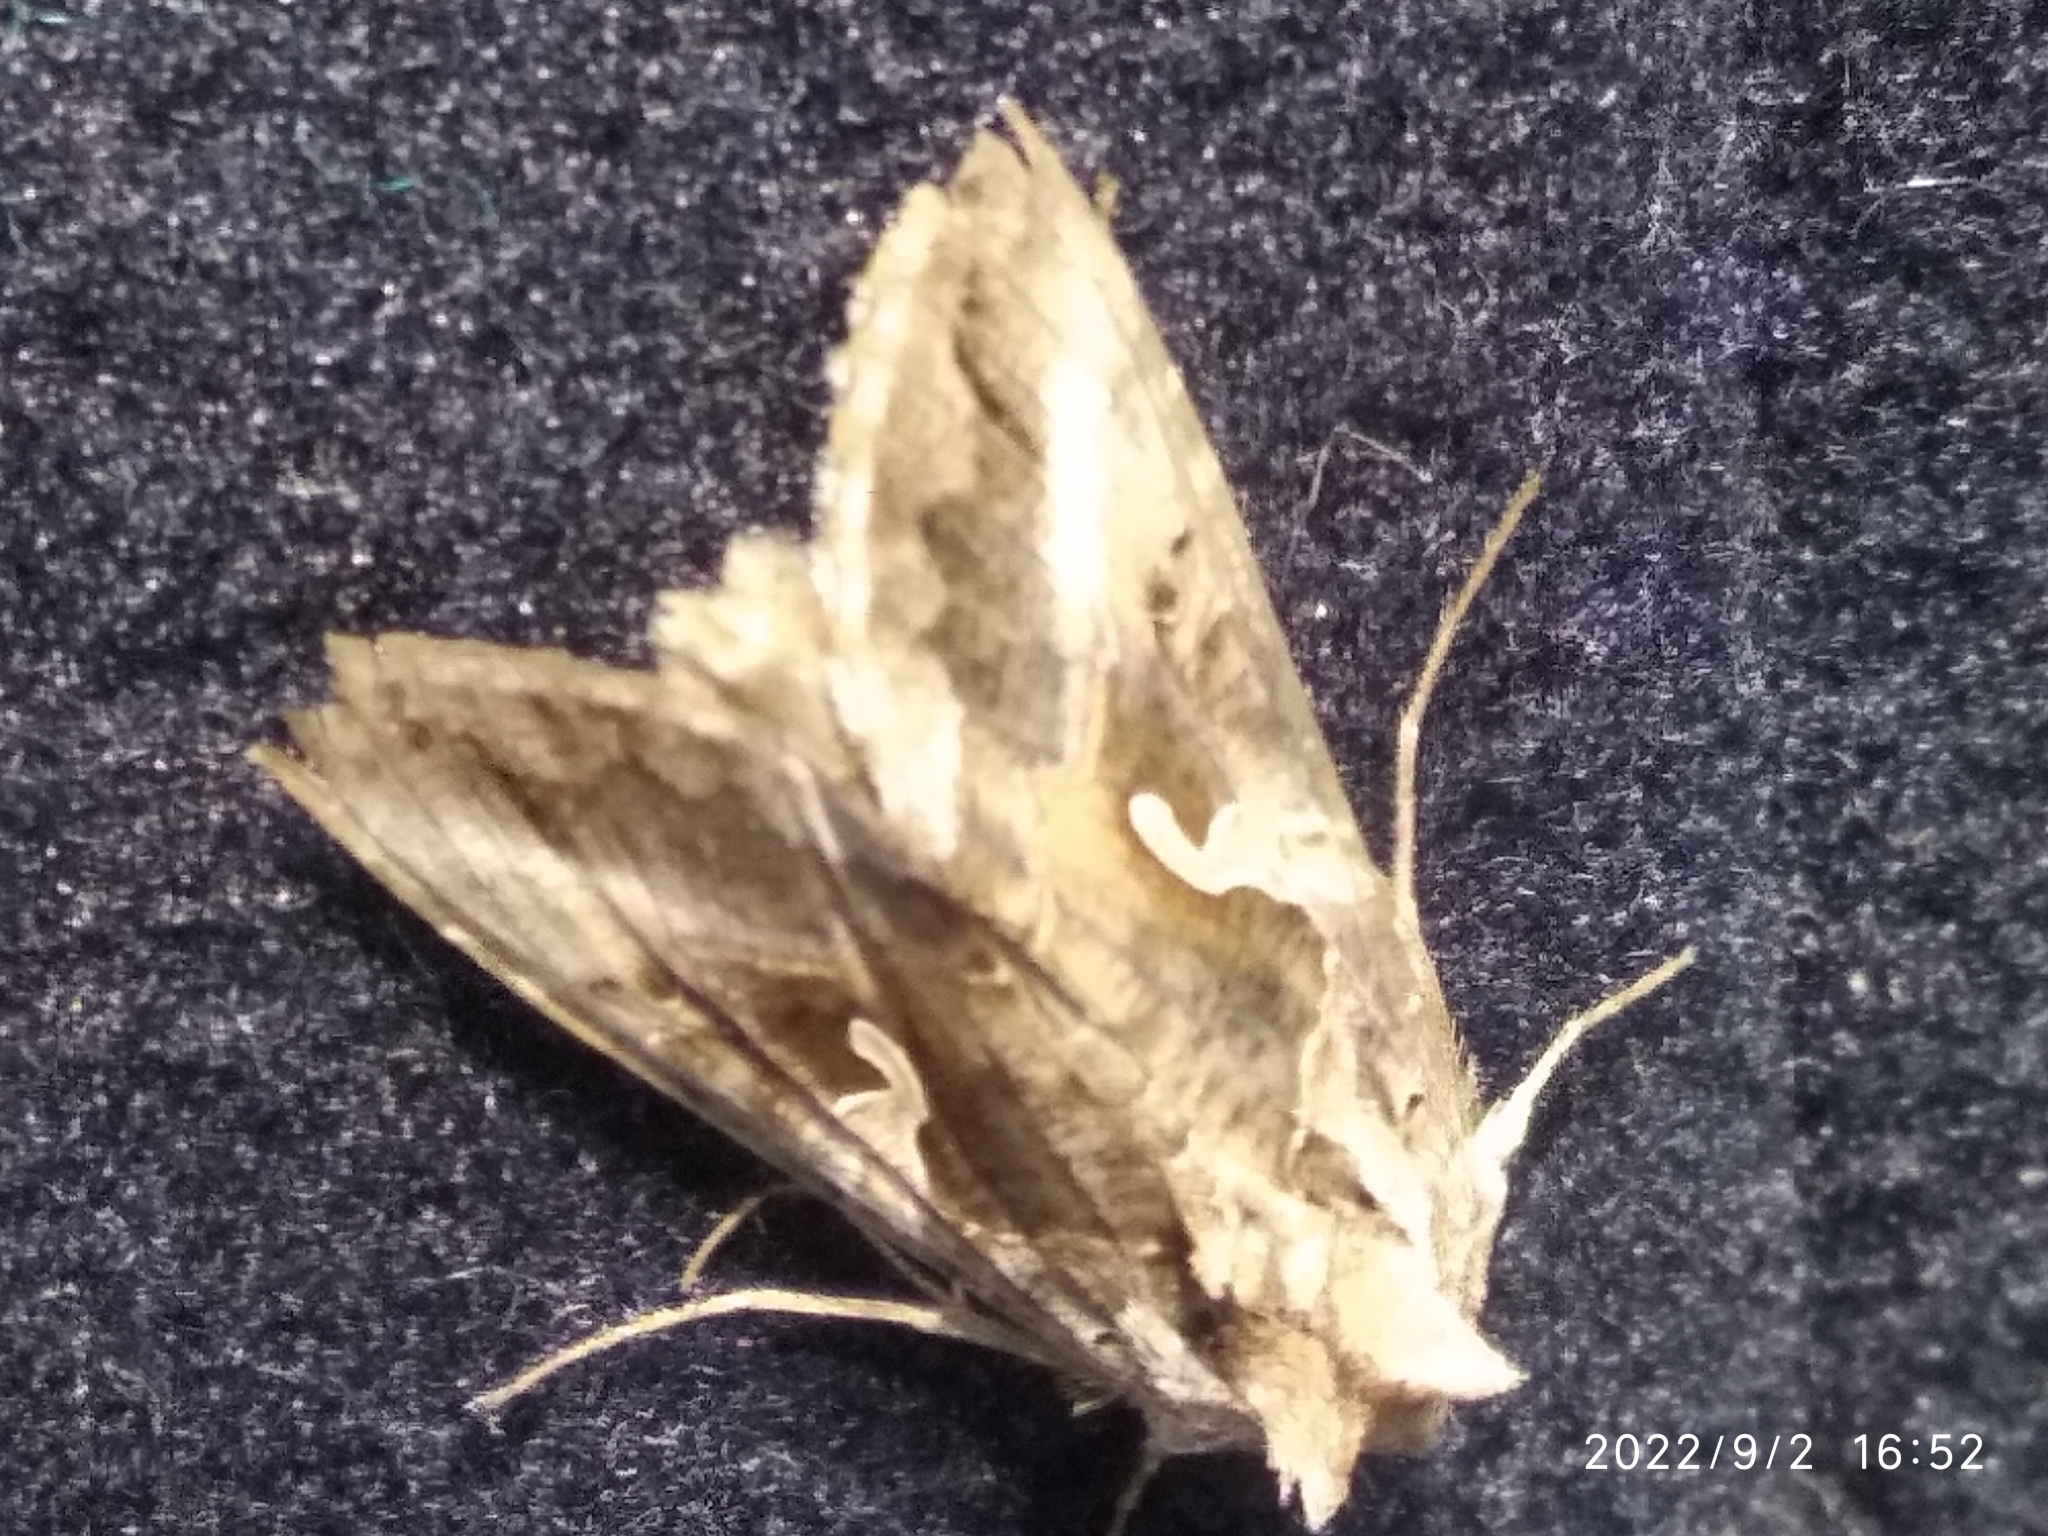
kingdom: Animalia
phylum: Arthropoda
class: Insecta
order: Lepidoptera
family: Noctuidae
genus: Autographa
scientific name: Autographa gamma
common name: Silver y
